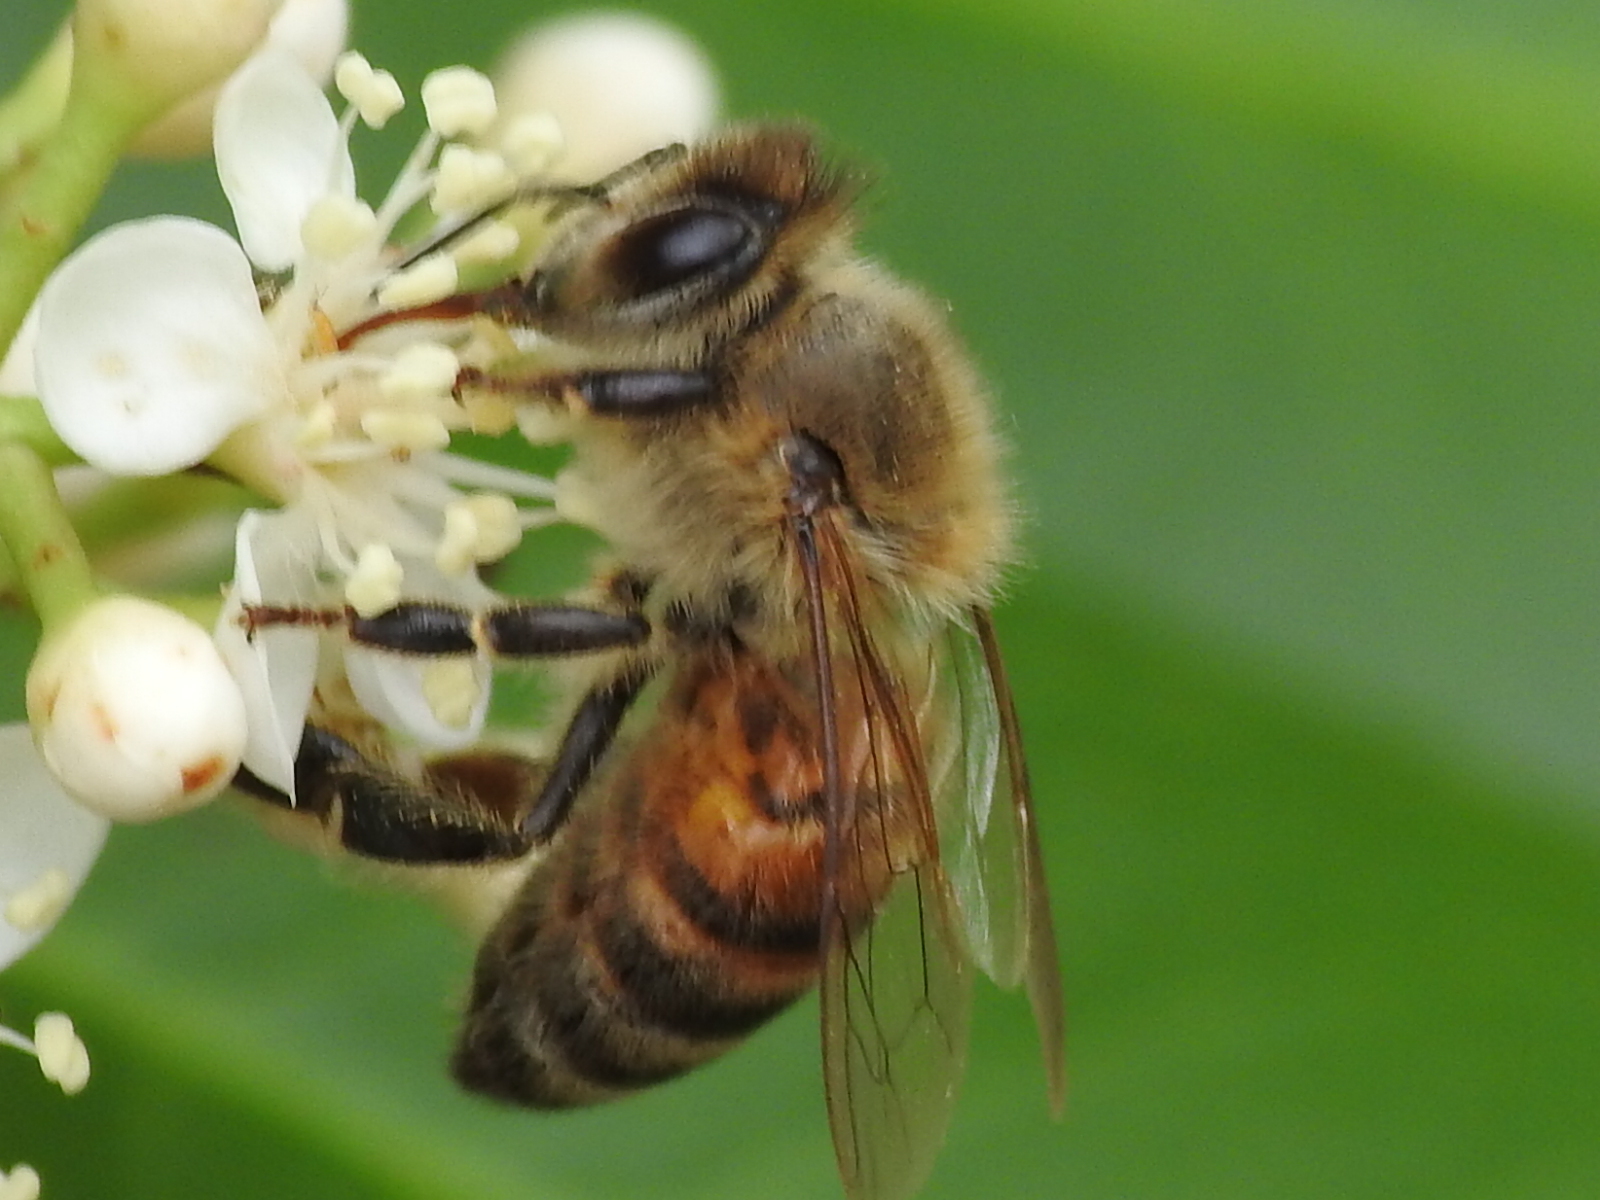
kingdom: Animalia
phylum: Arthropoda
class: Insecta
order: Hymenoptera
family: Apidae
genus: Apis
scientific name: Apis mellifera
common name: Honey bee
